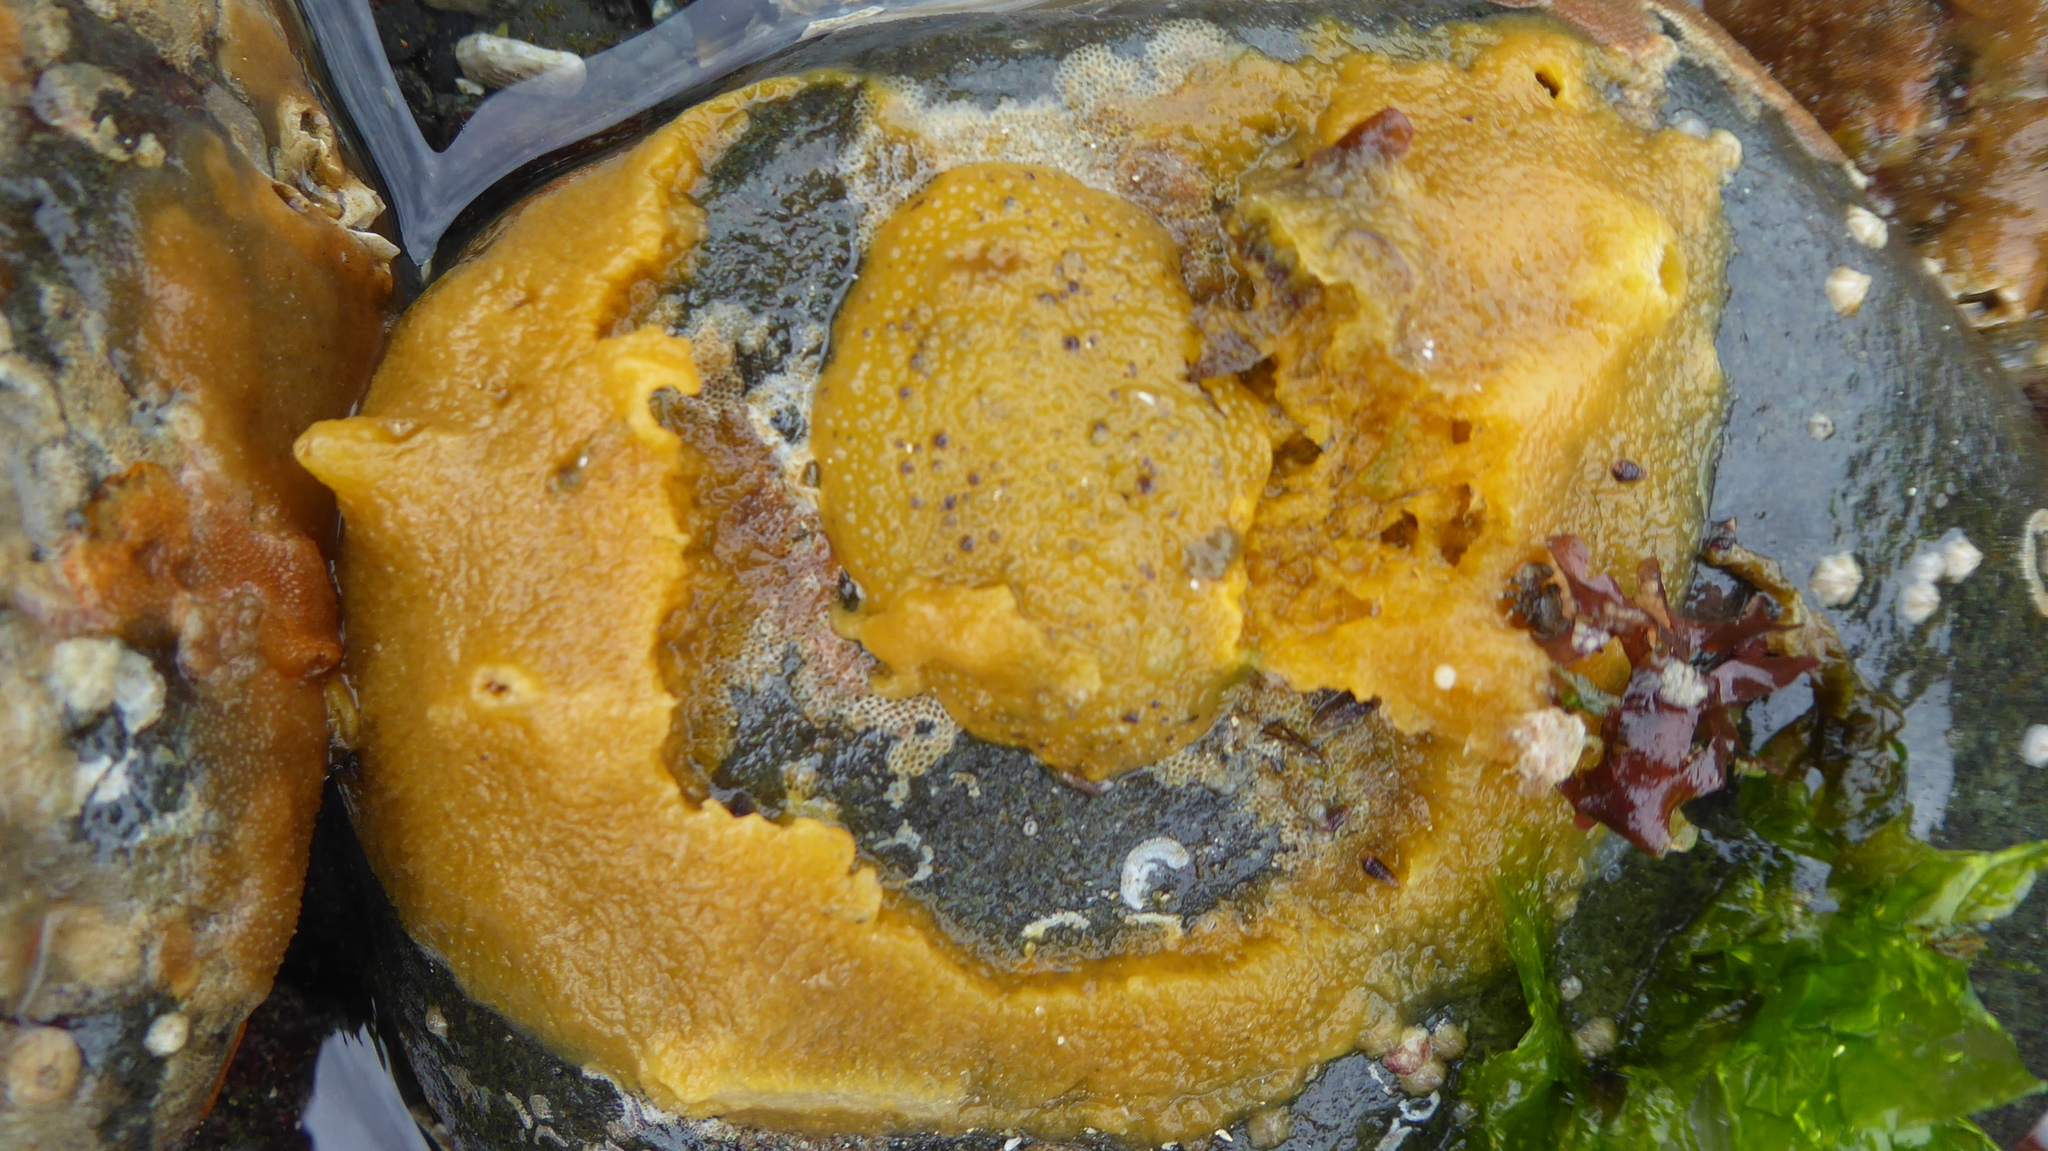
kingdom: Animalia
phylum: Mollusca
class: Gastropoda
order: Nudibranchia
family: Dorididae
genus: Doris
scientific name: Doris montereyensis
